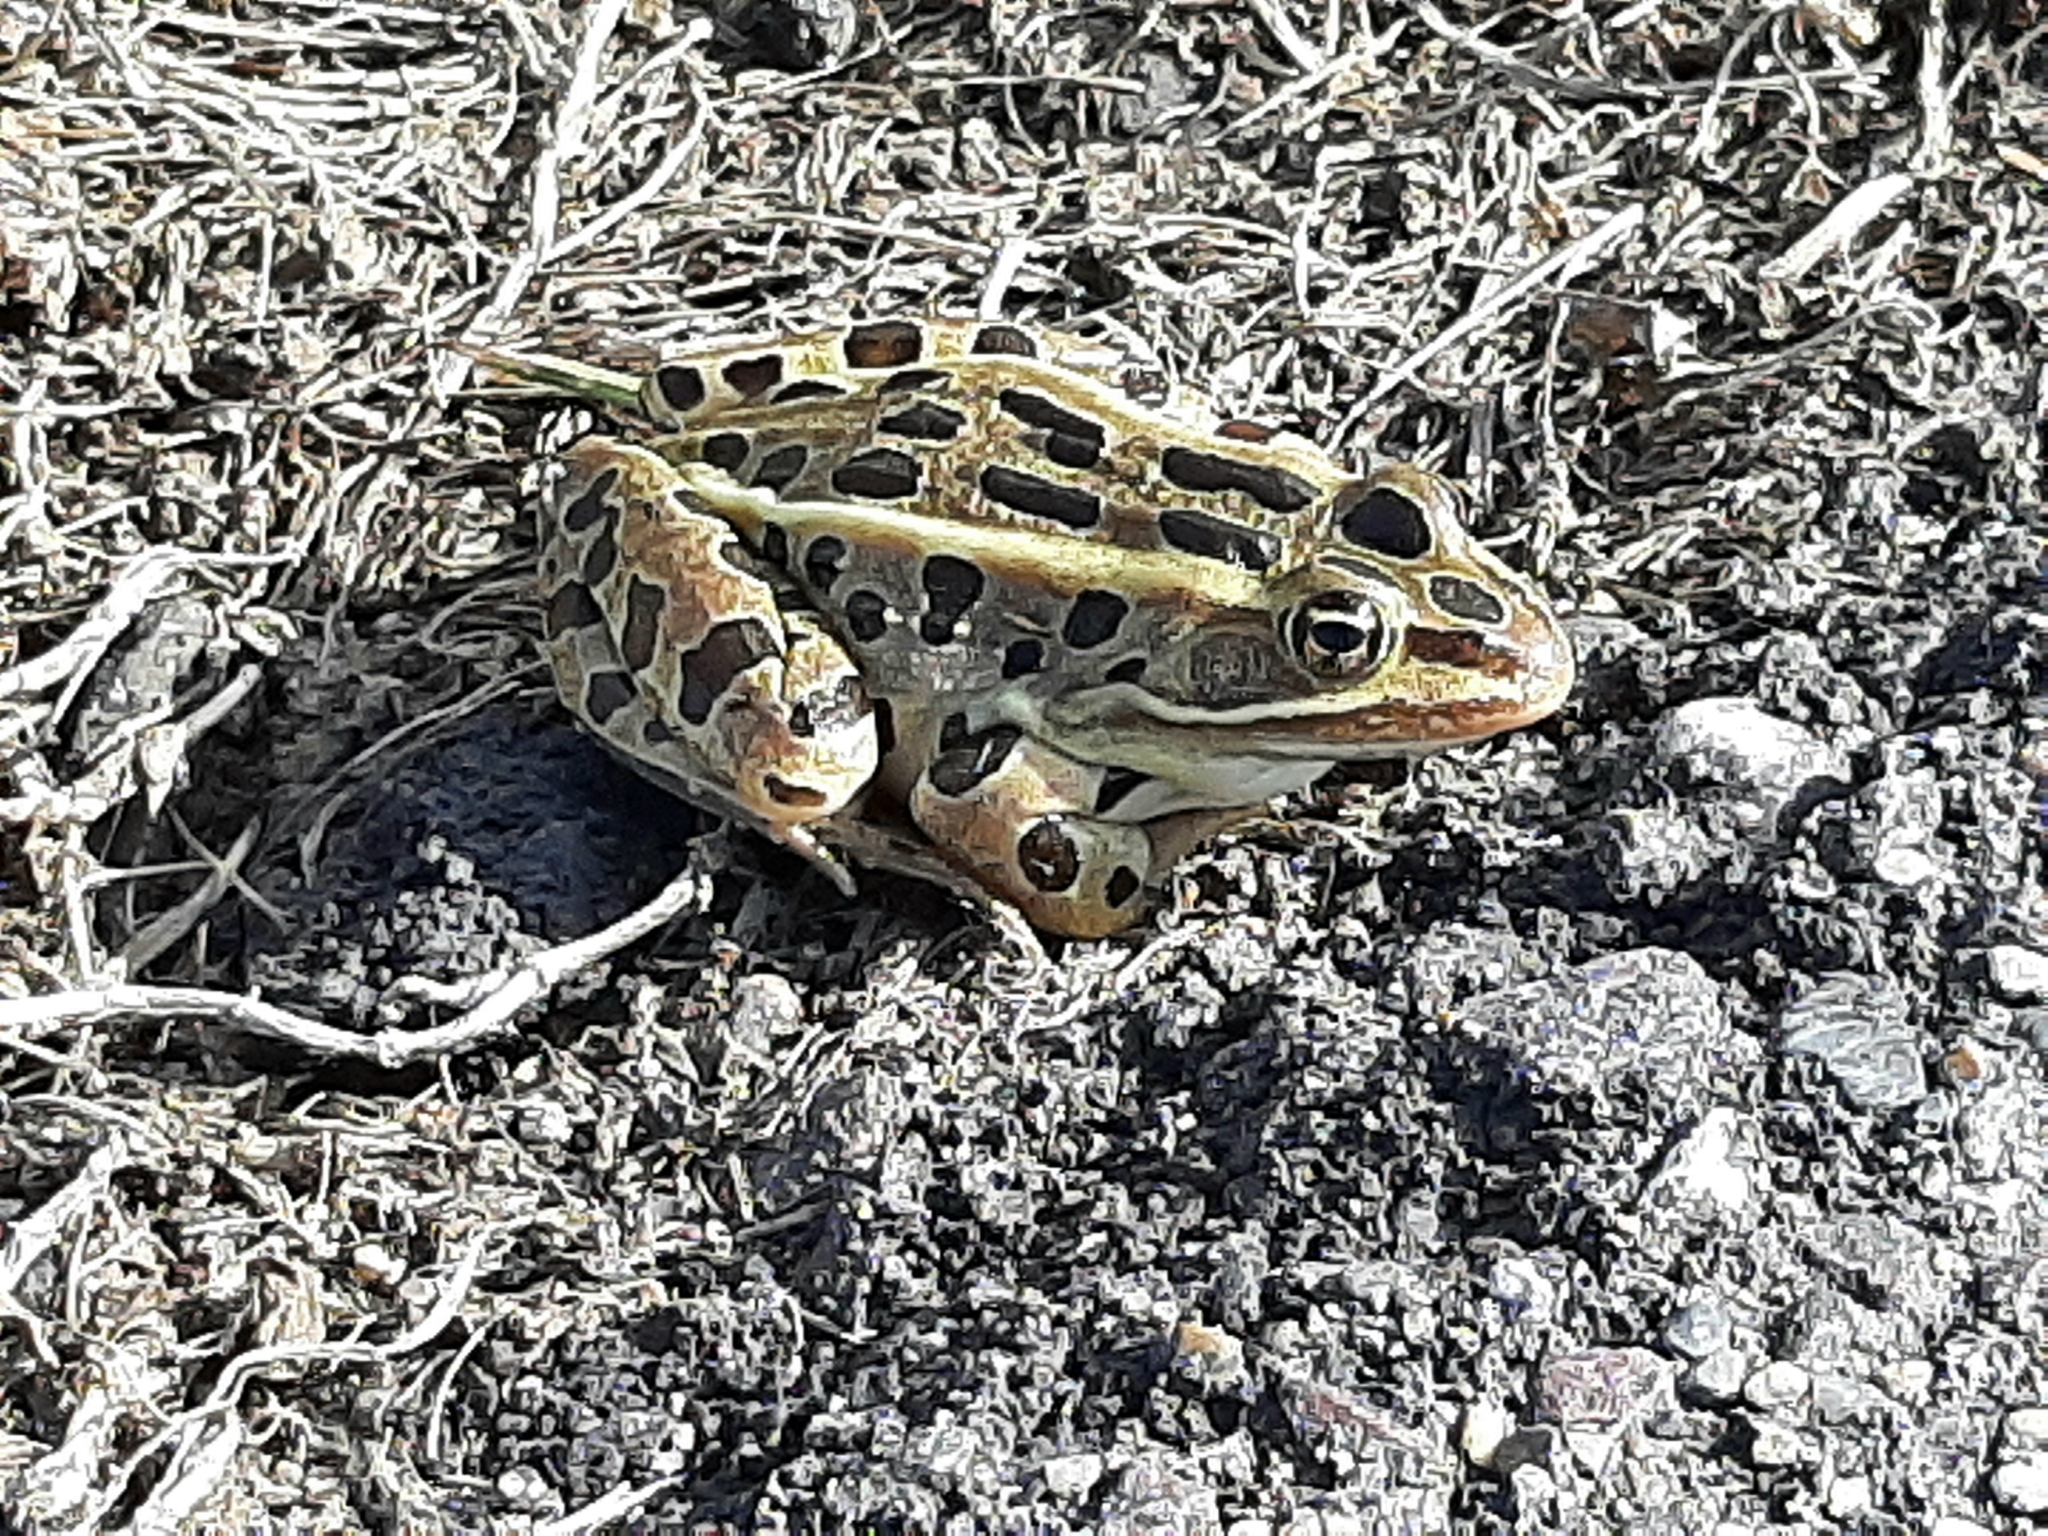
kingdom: Animalia
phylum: Chordata
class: Amphibia
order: Anura
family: Ranidae
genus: Lithobates
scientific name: Lithobates pipiens
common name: Northern leopard frog
